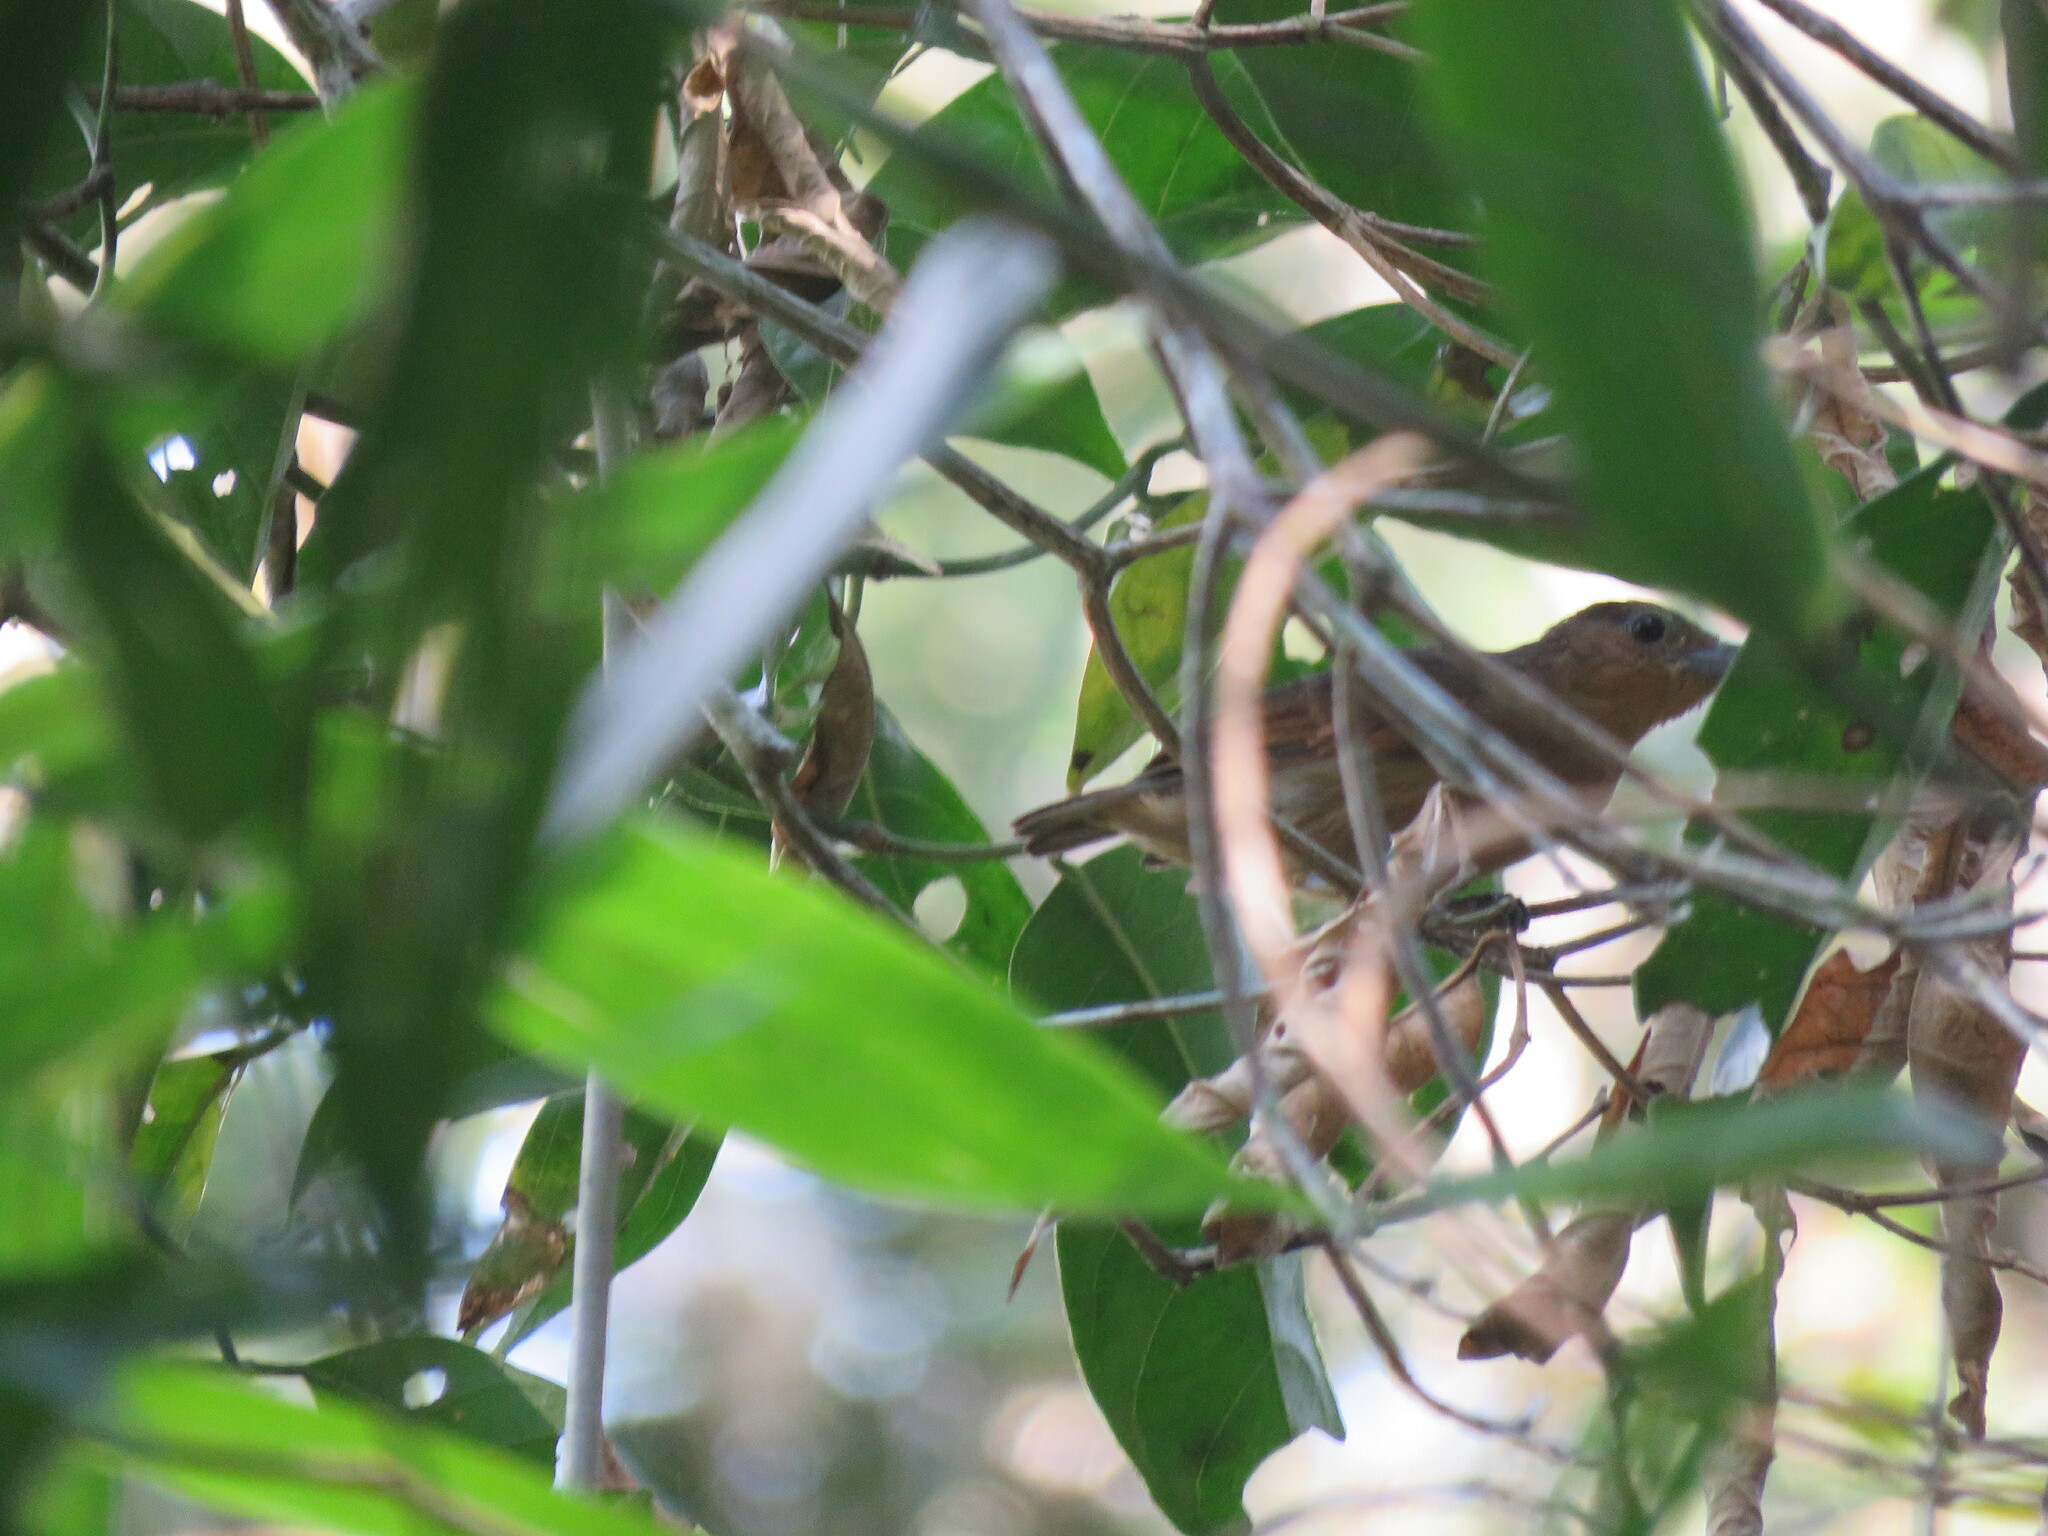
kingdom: Animalia
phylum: Chordata
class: Aves
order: Passeriformes
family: Thamnophilidae
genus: Pygiptila
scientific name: Pygiptila stellaris
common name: Spot-winged antshrike
